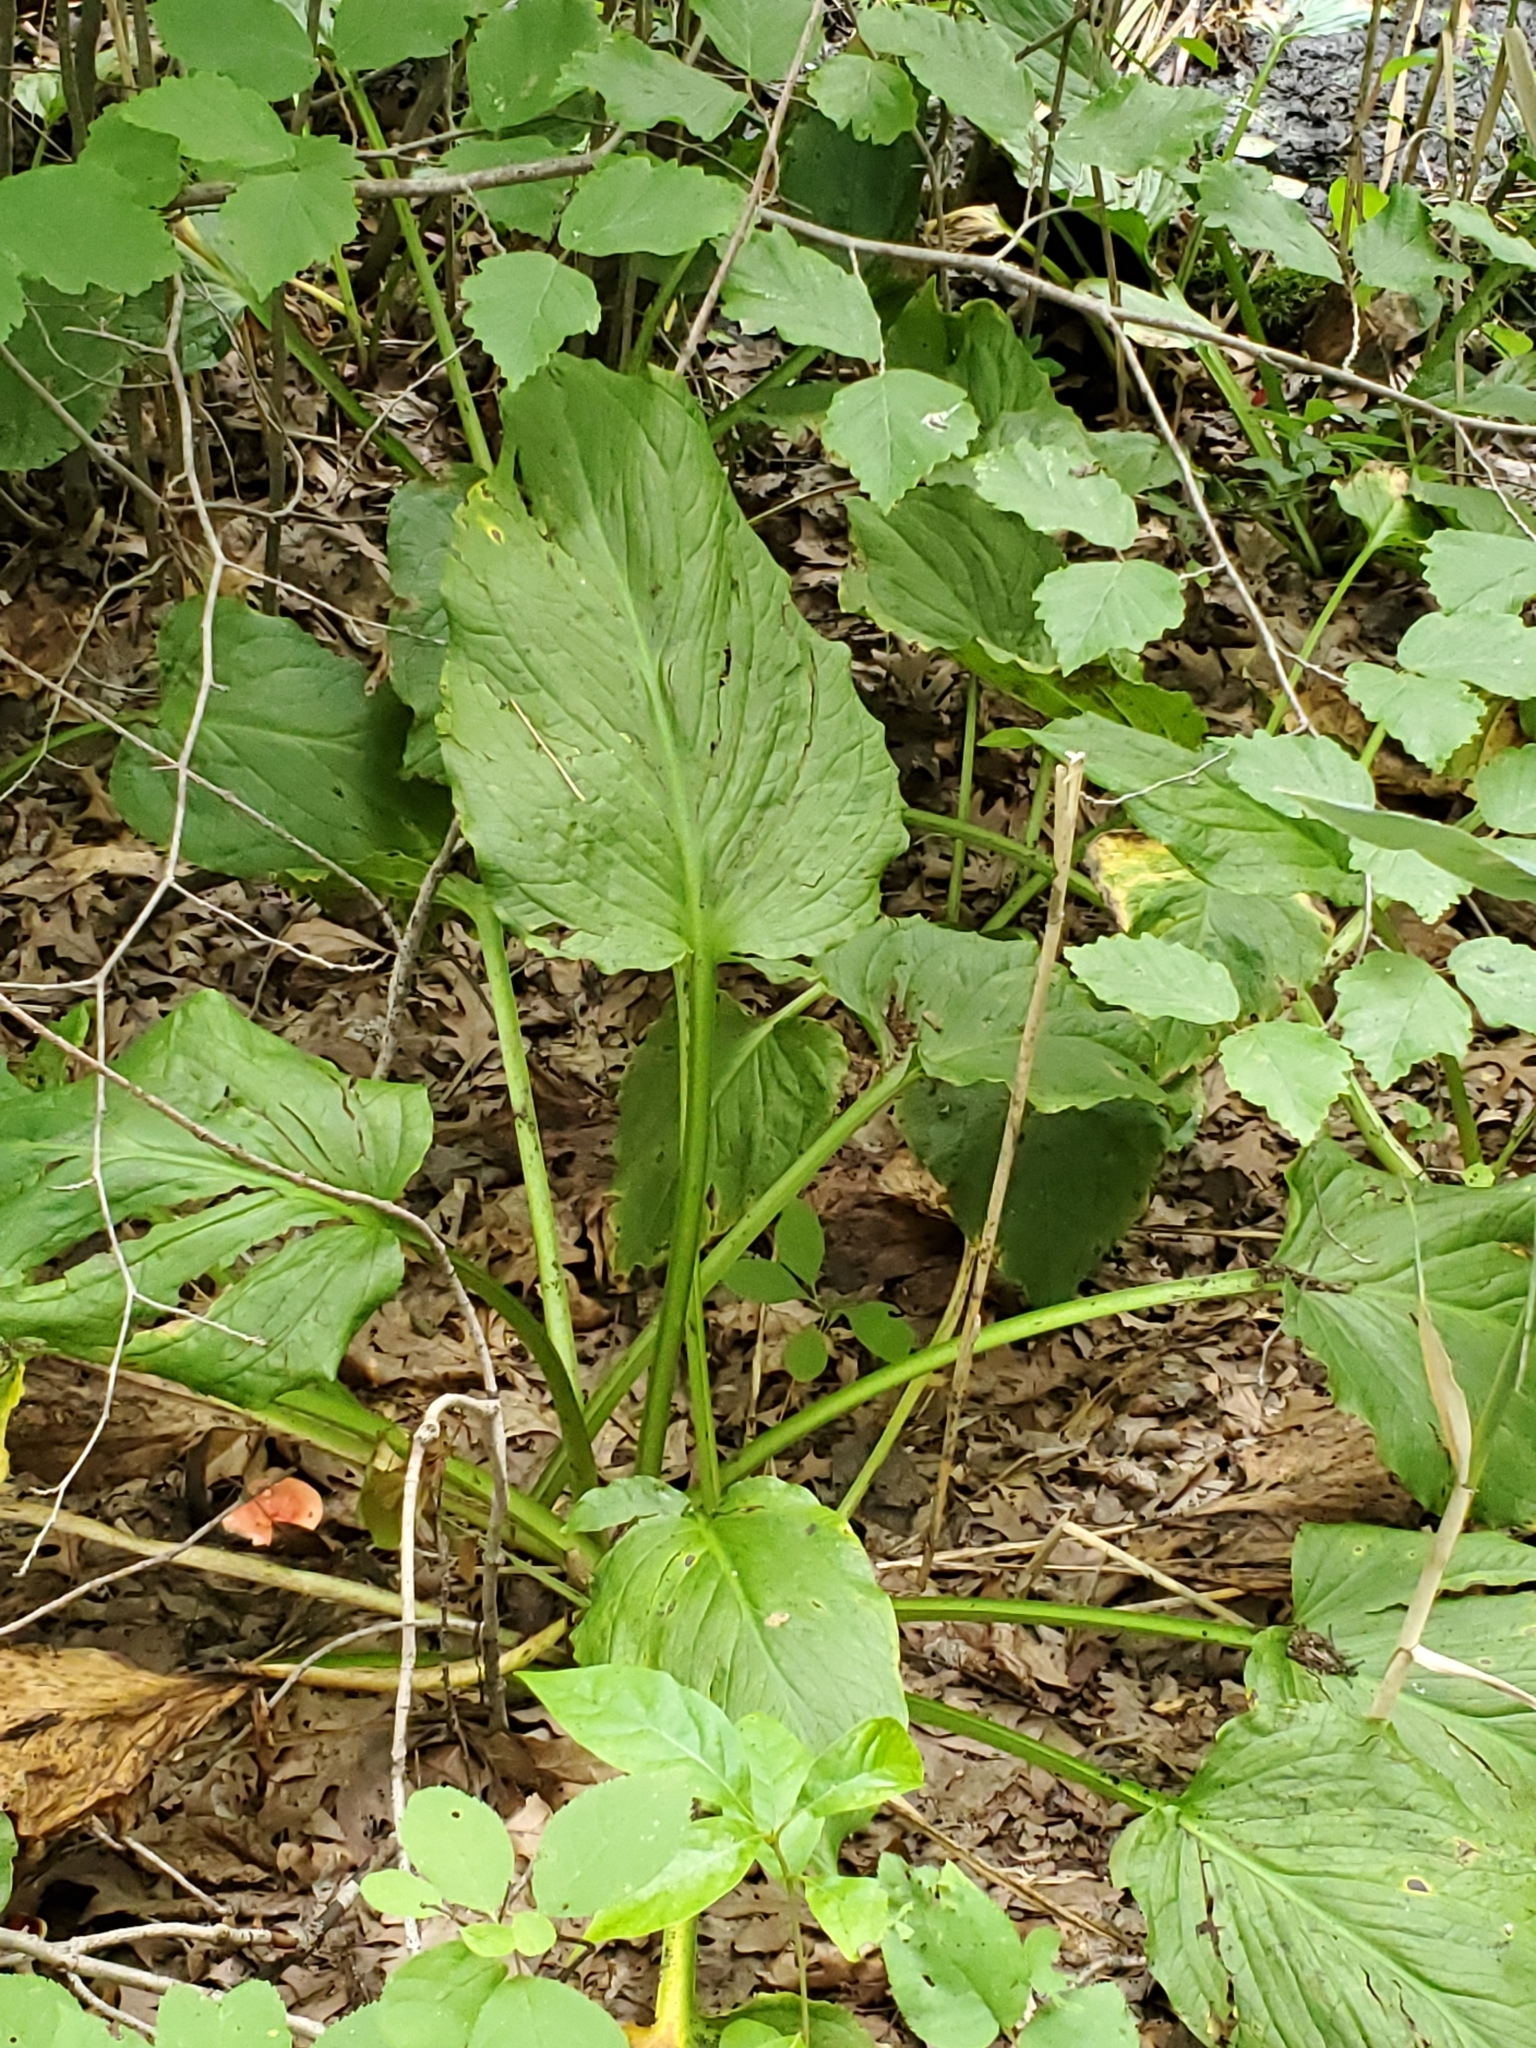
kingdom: Plantae
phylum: Tracheophyta
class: Liliopsida
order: Alismatales
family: Araceae
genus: Symplocarpus
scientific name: Symplocarpus foetidus
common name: Eastern skunk cabbage
